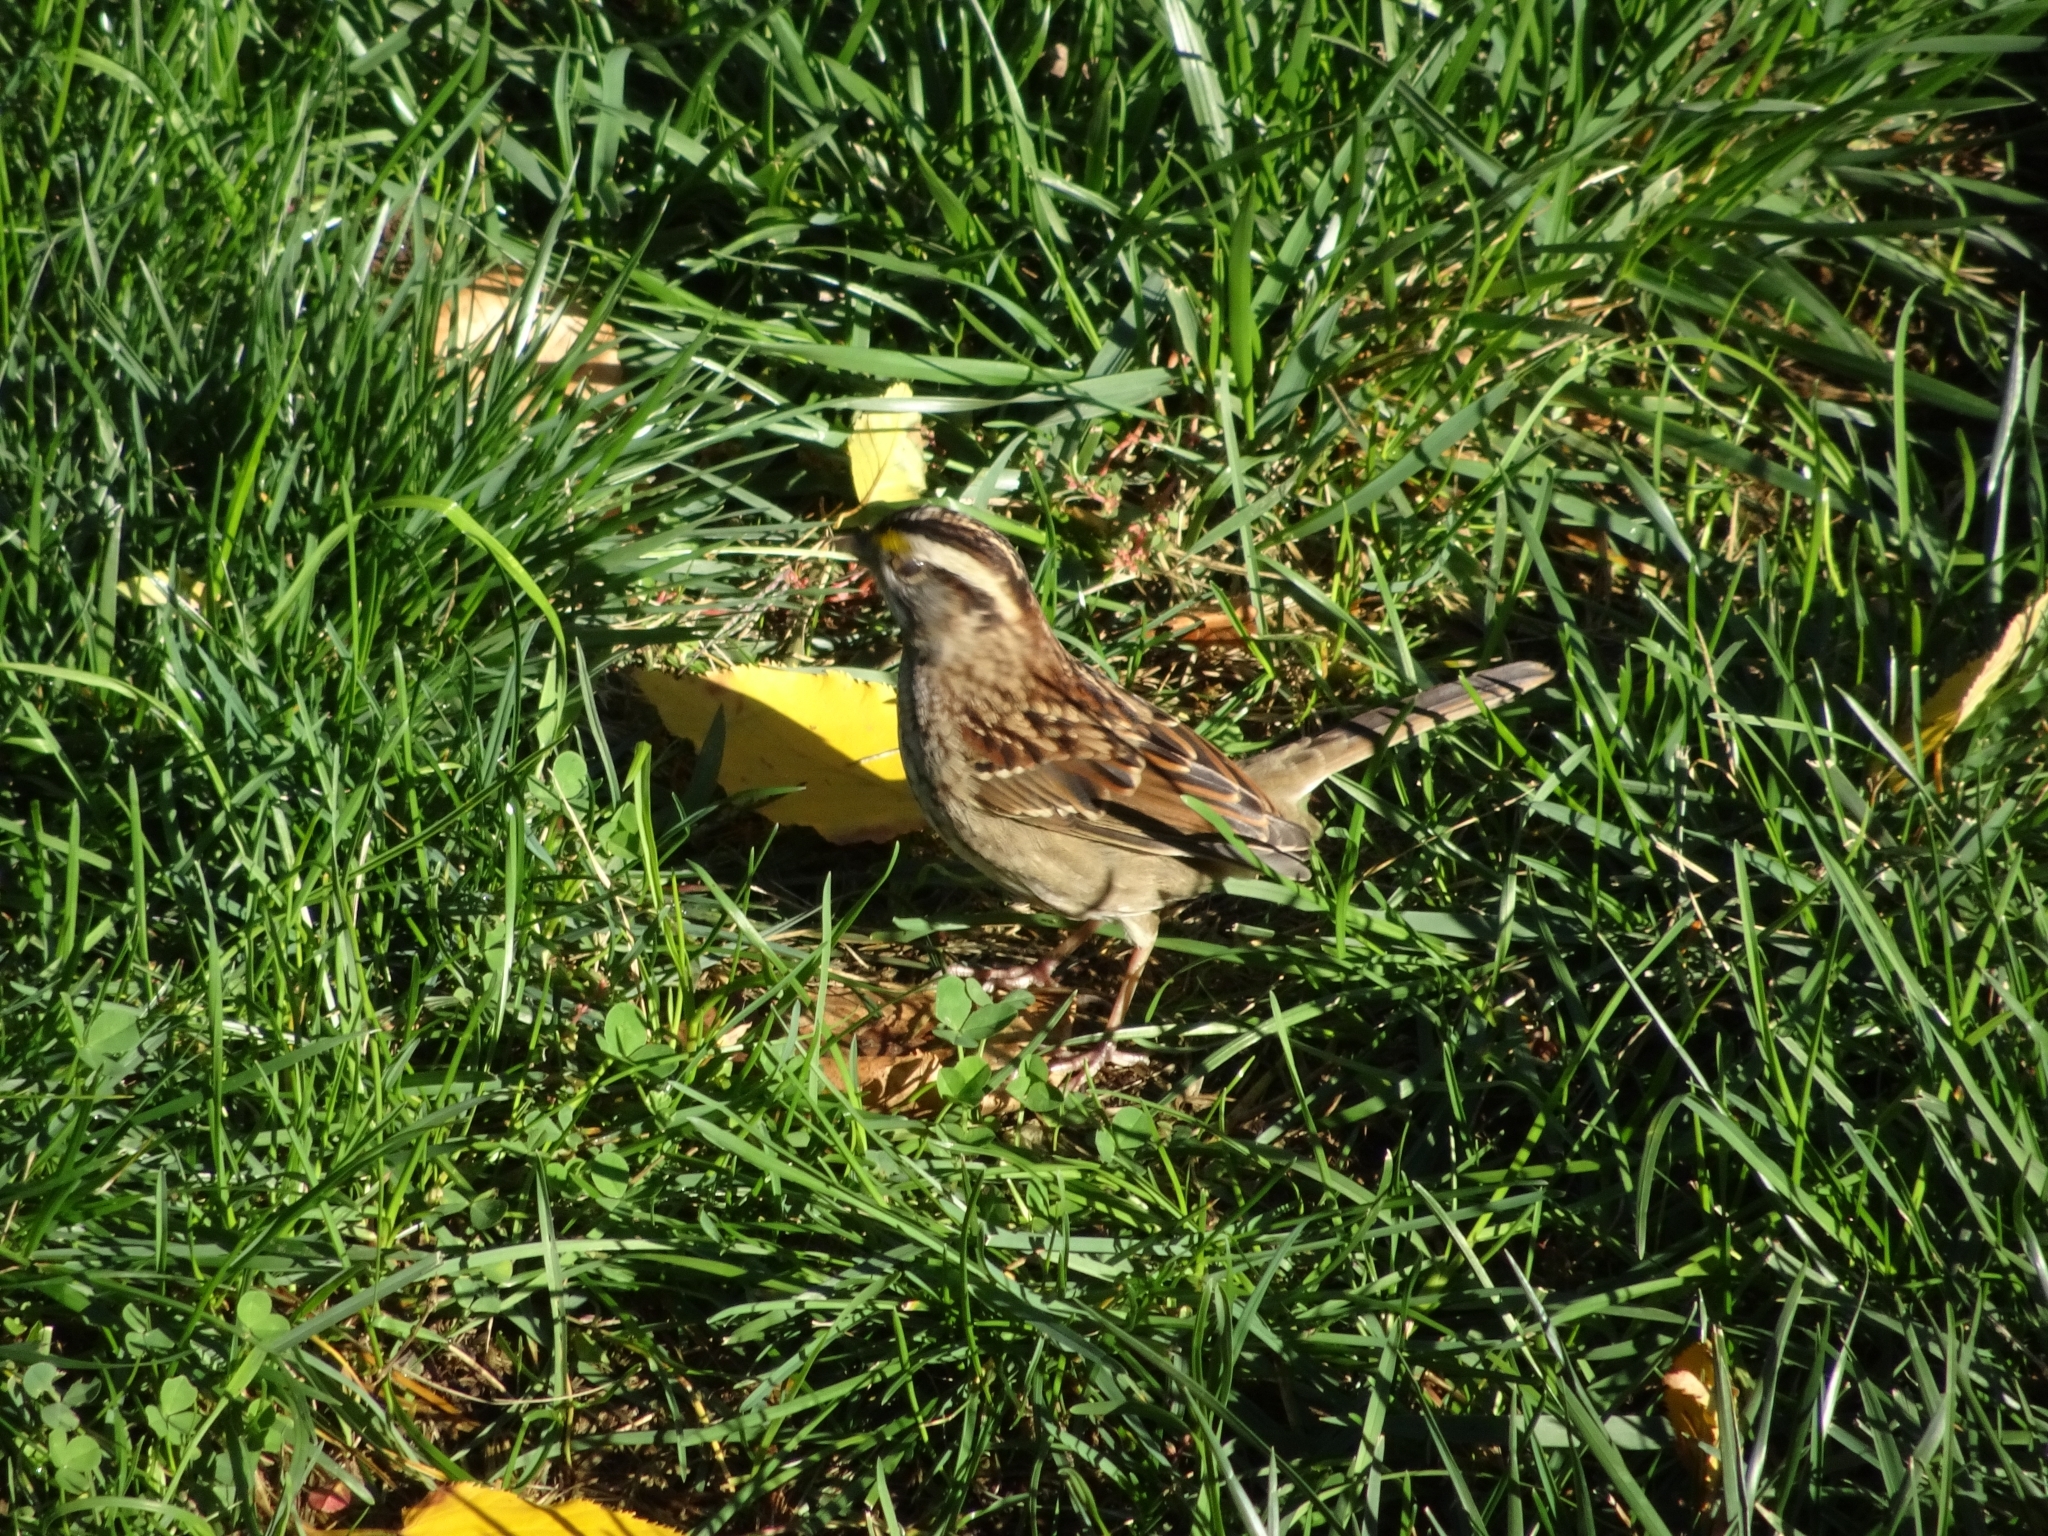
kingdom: Animalia
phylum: Chordata
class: Aves
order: Passeriformes
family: Passerellidae
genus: Zonotrichia
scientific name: Zonotrichia albicollis
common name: White-throated sparrow
